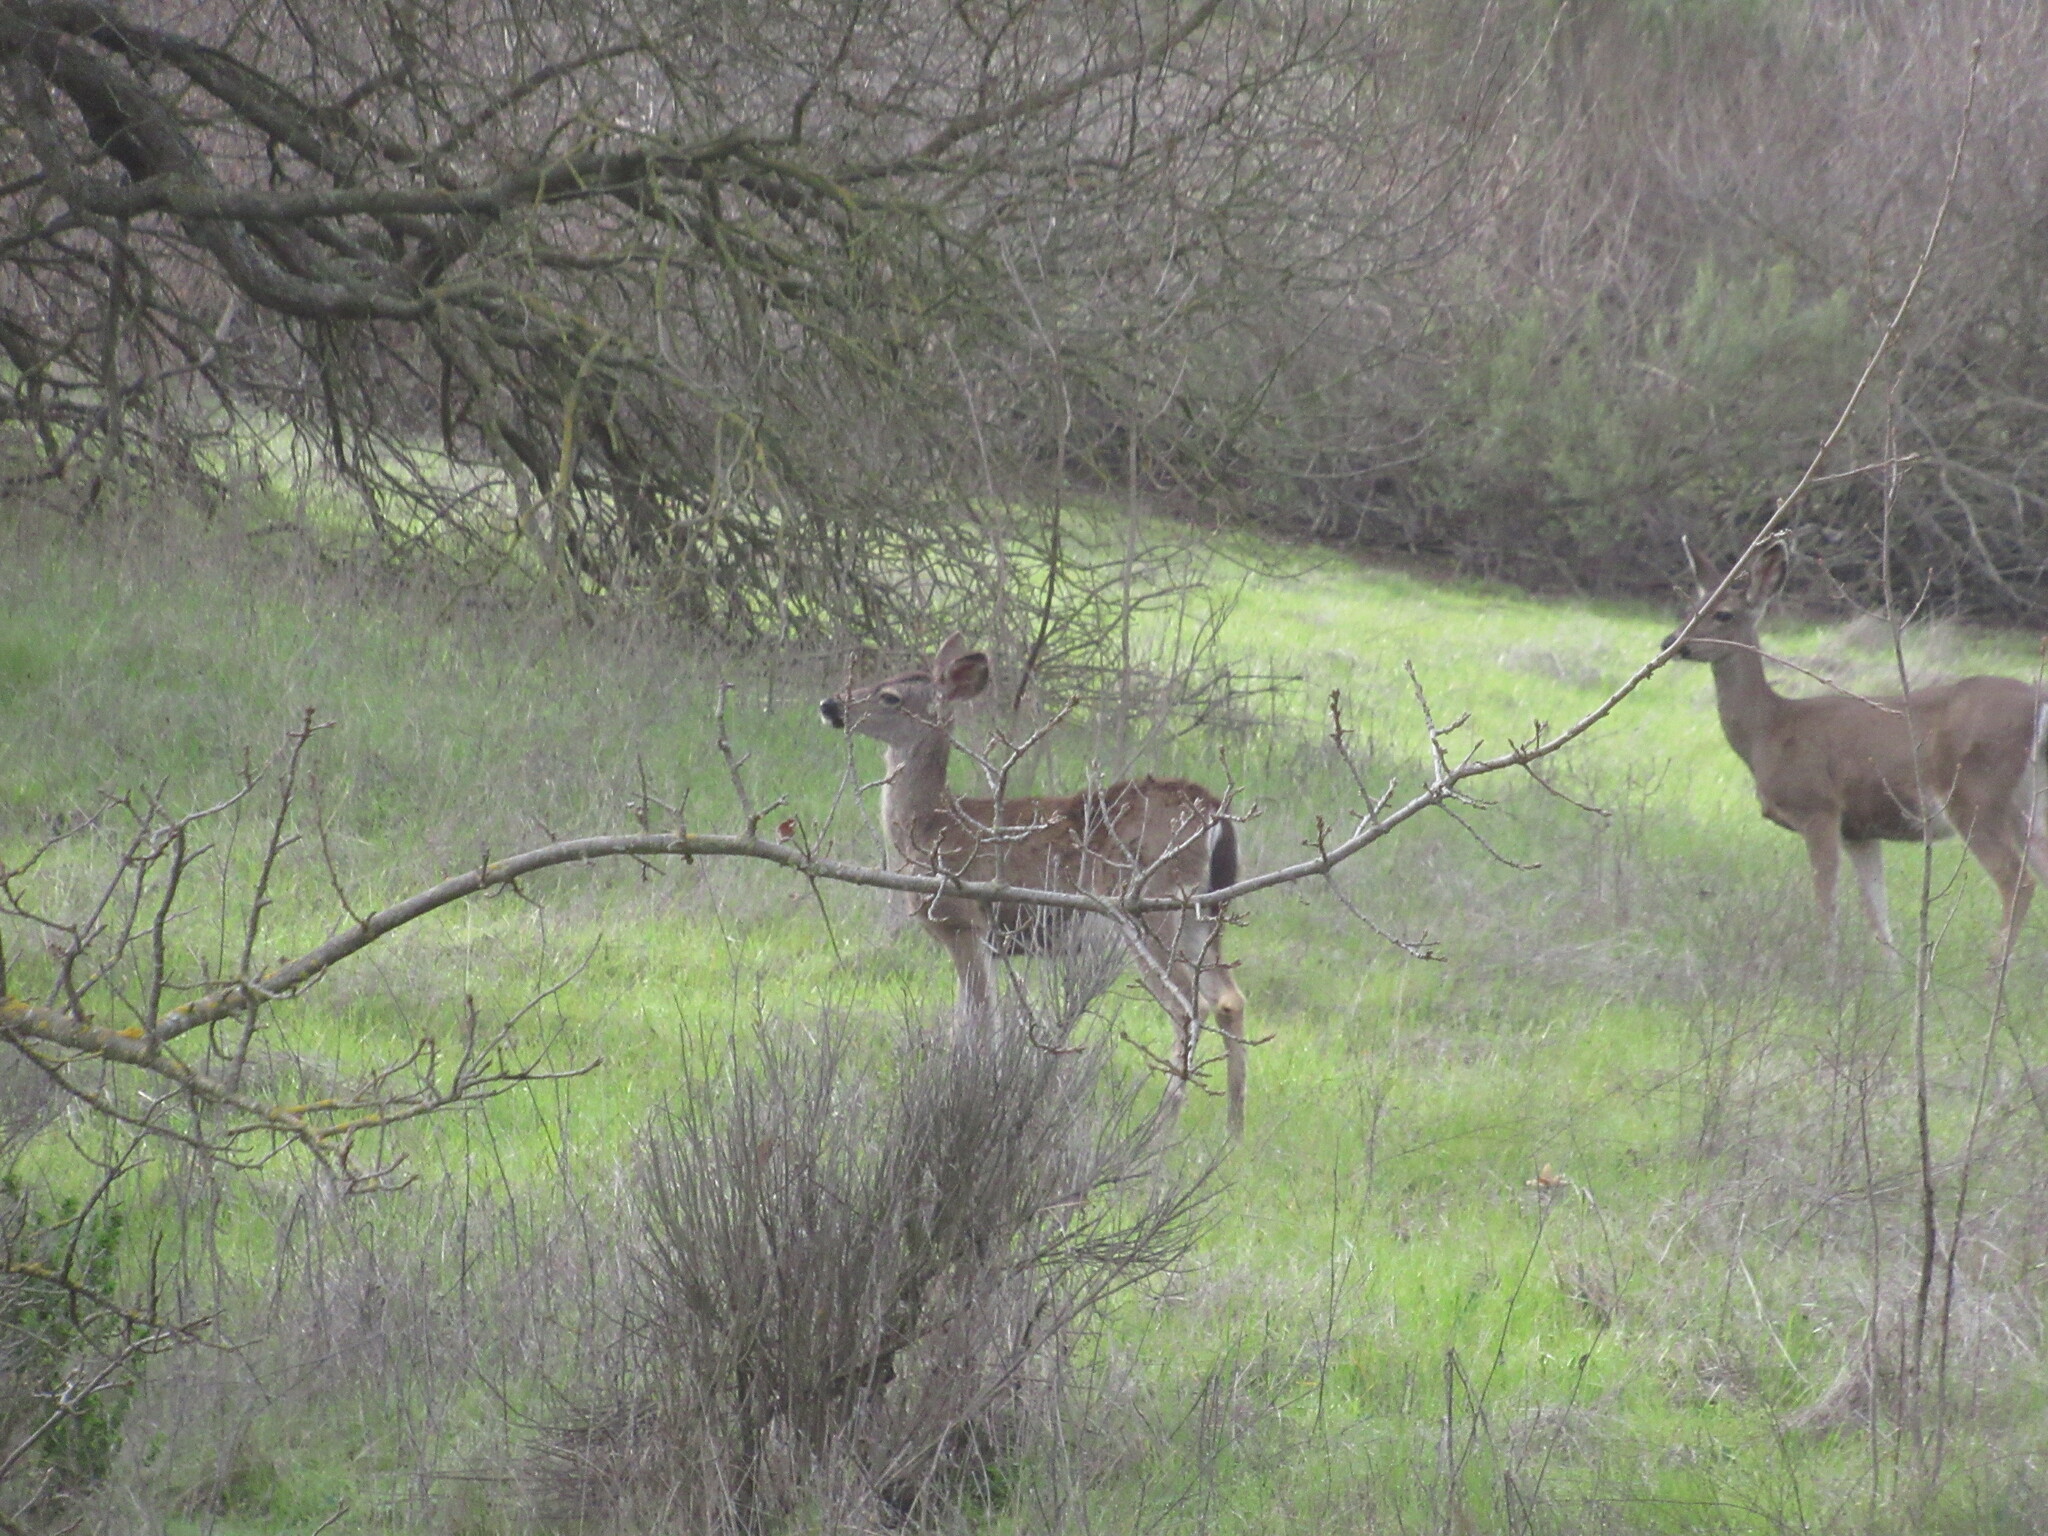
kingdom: Animalia
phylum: Chordata
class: Mammalia
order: Artiodactyla
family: Cervidae
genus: Odocoileus
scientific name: Odocoileus hemionus
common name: Mule deer
